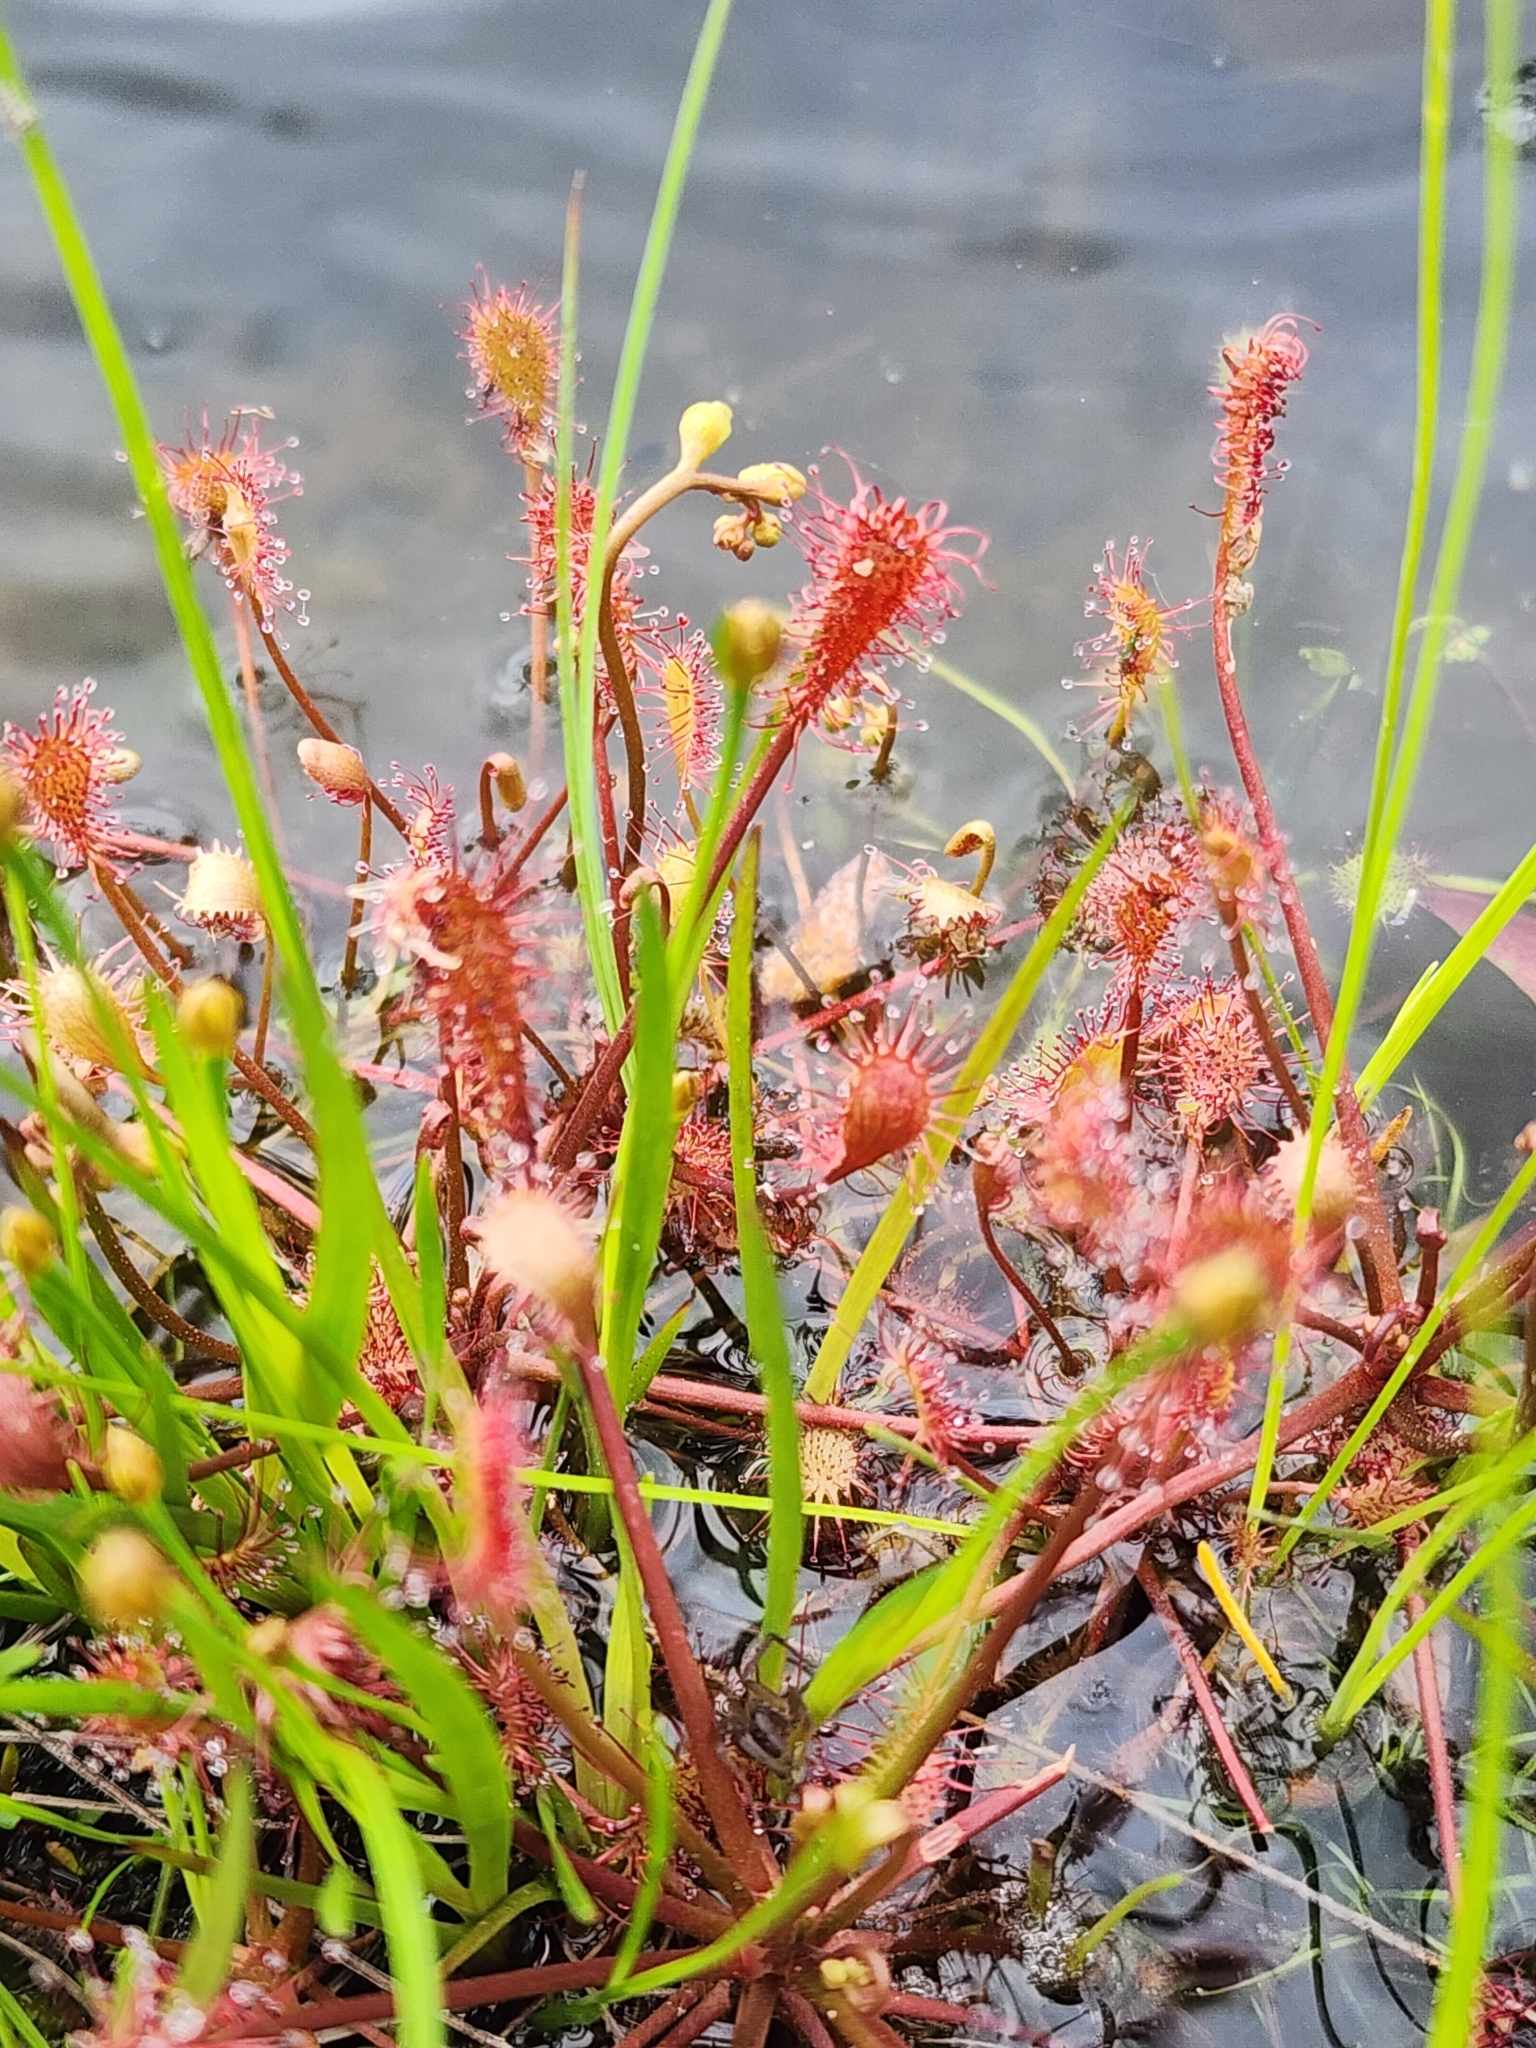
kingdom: Plantae
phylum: Tracheophyta
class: Magnoliopsida
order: Caryophyllales
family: Droseraceae
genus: Drosera
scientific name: Drosera intermedia
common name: Oblong-leaved sundew
